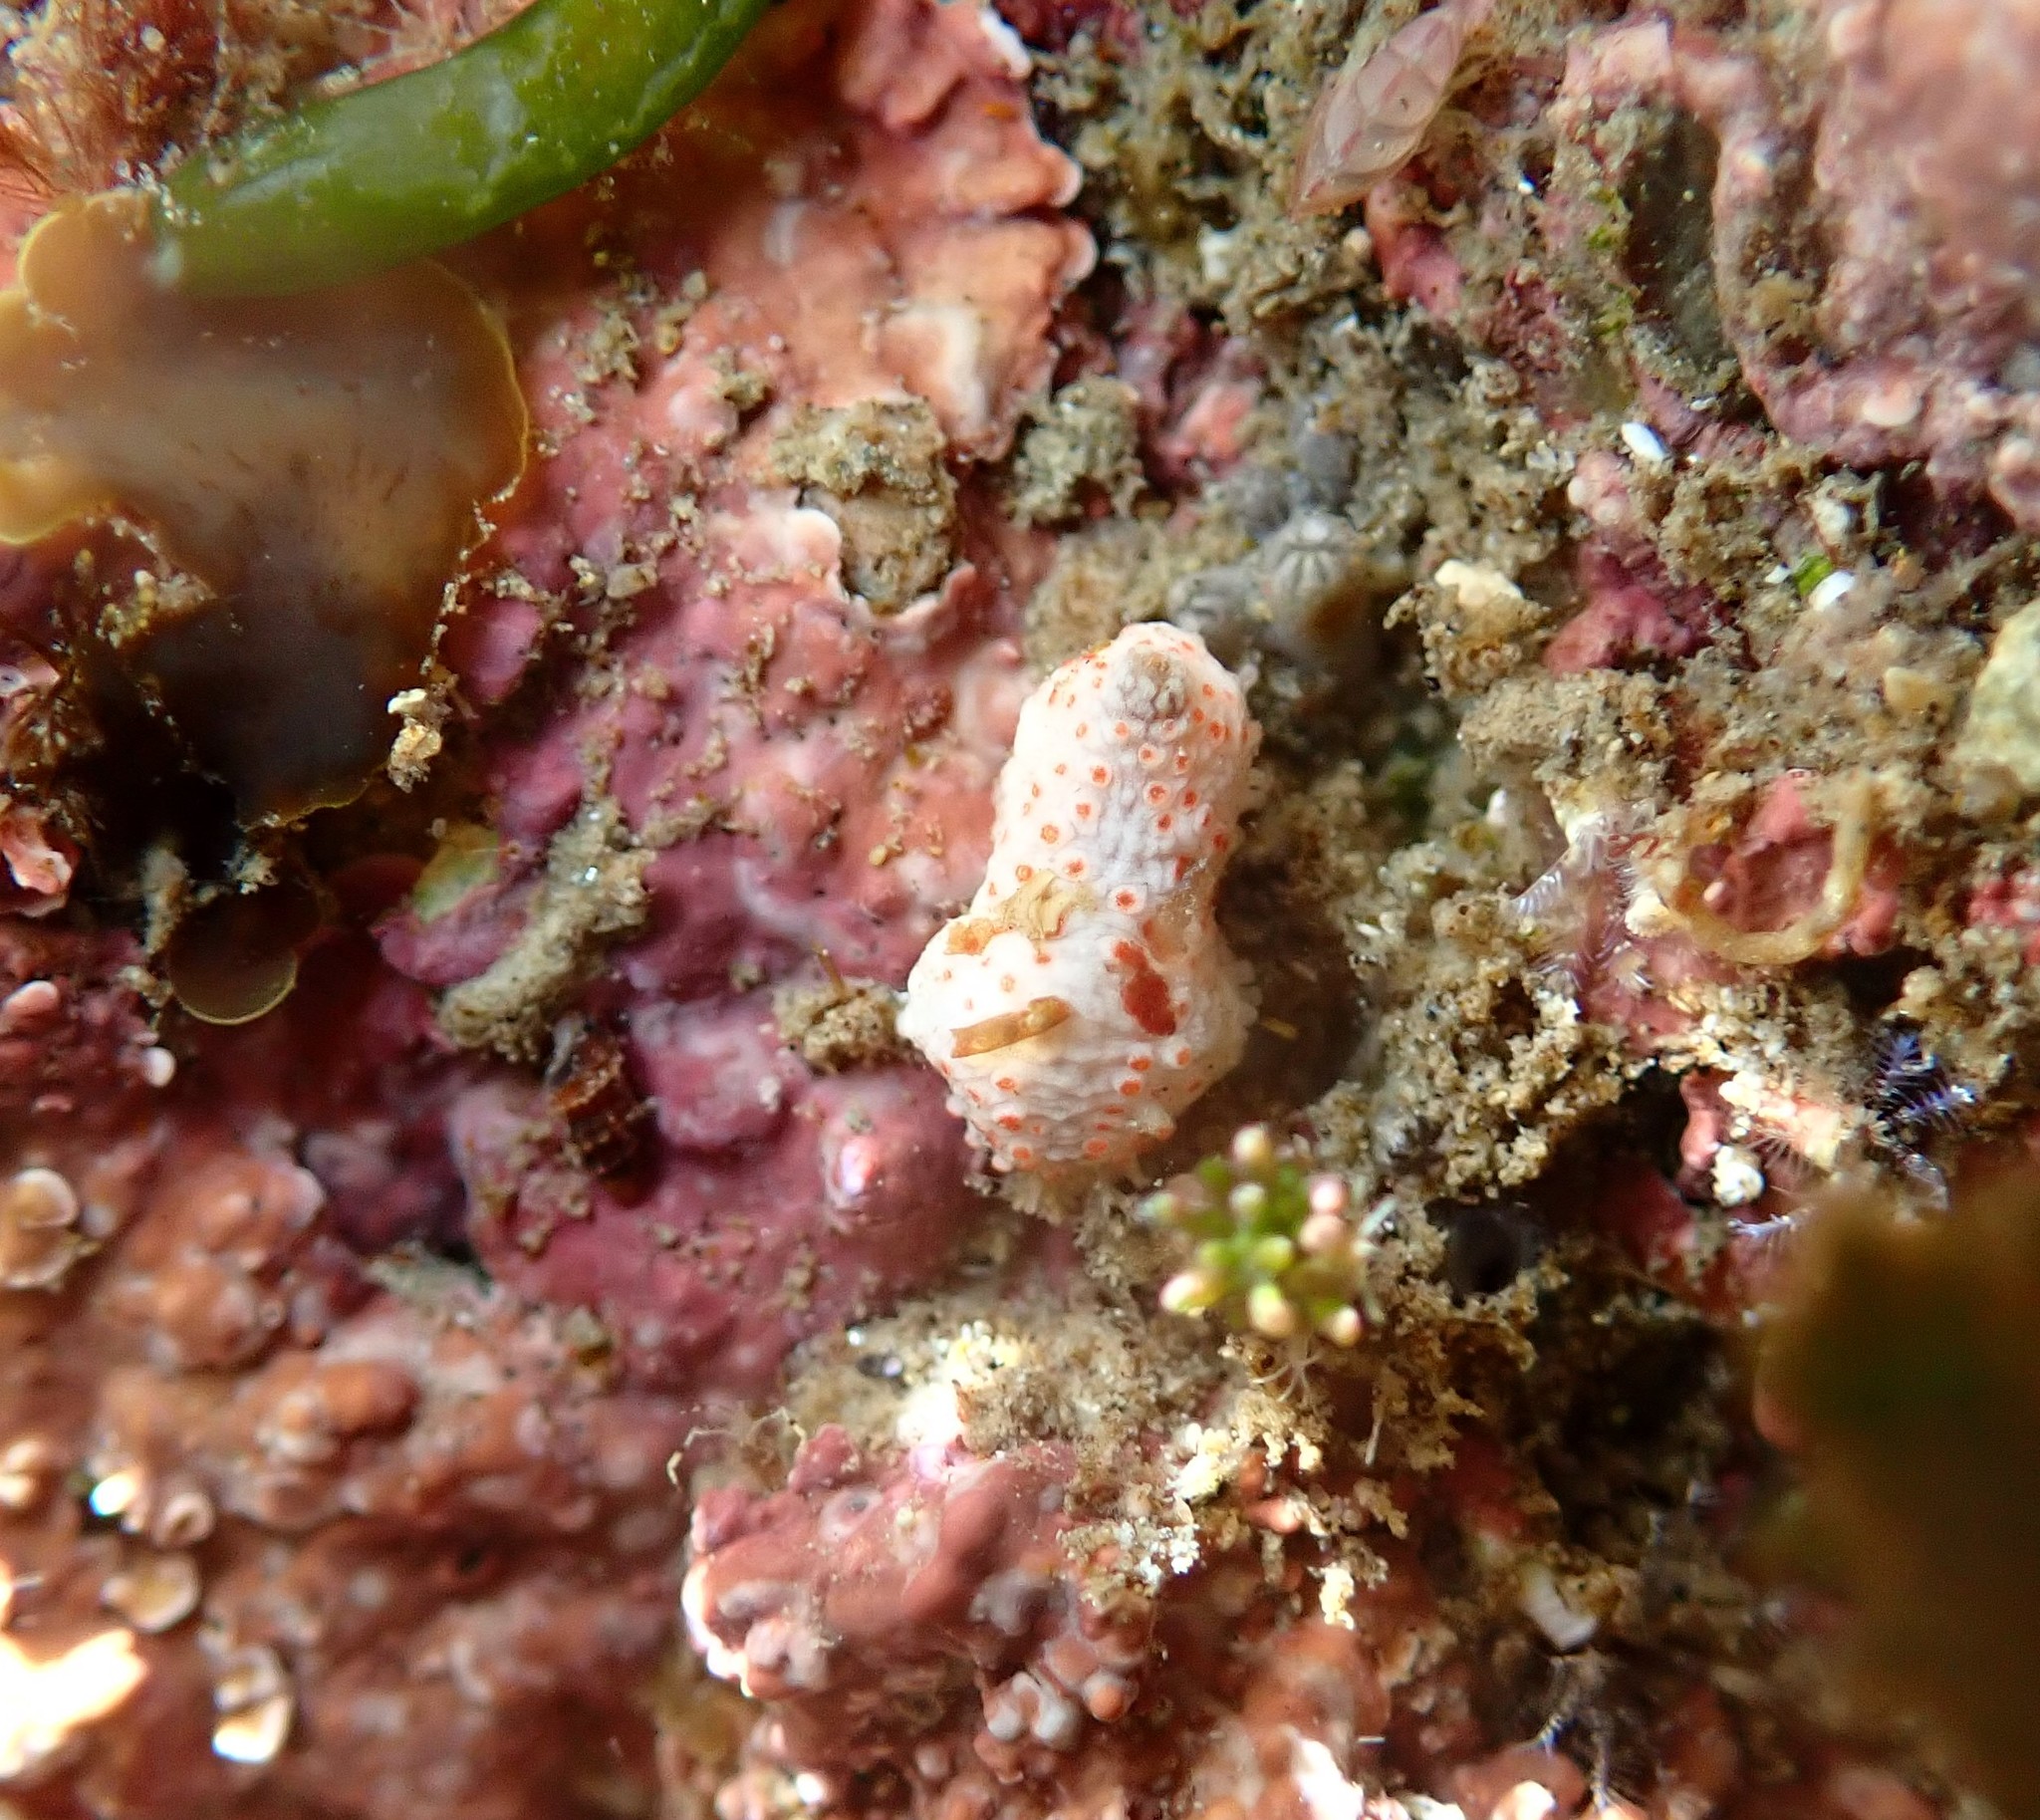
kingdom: Animalia
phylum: Echinodermata
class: Holothuroidea
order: Dendrochirotida
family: Cucumariidae
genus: Australocnus
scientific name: Australocnus calcareus
